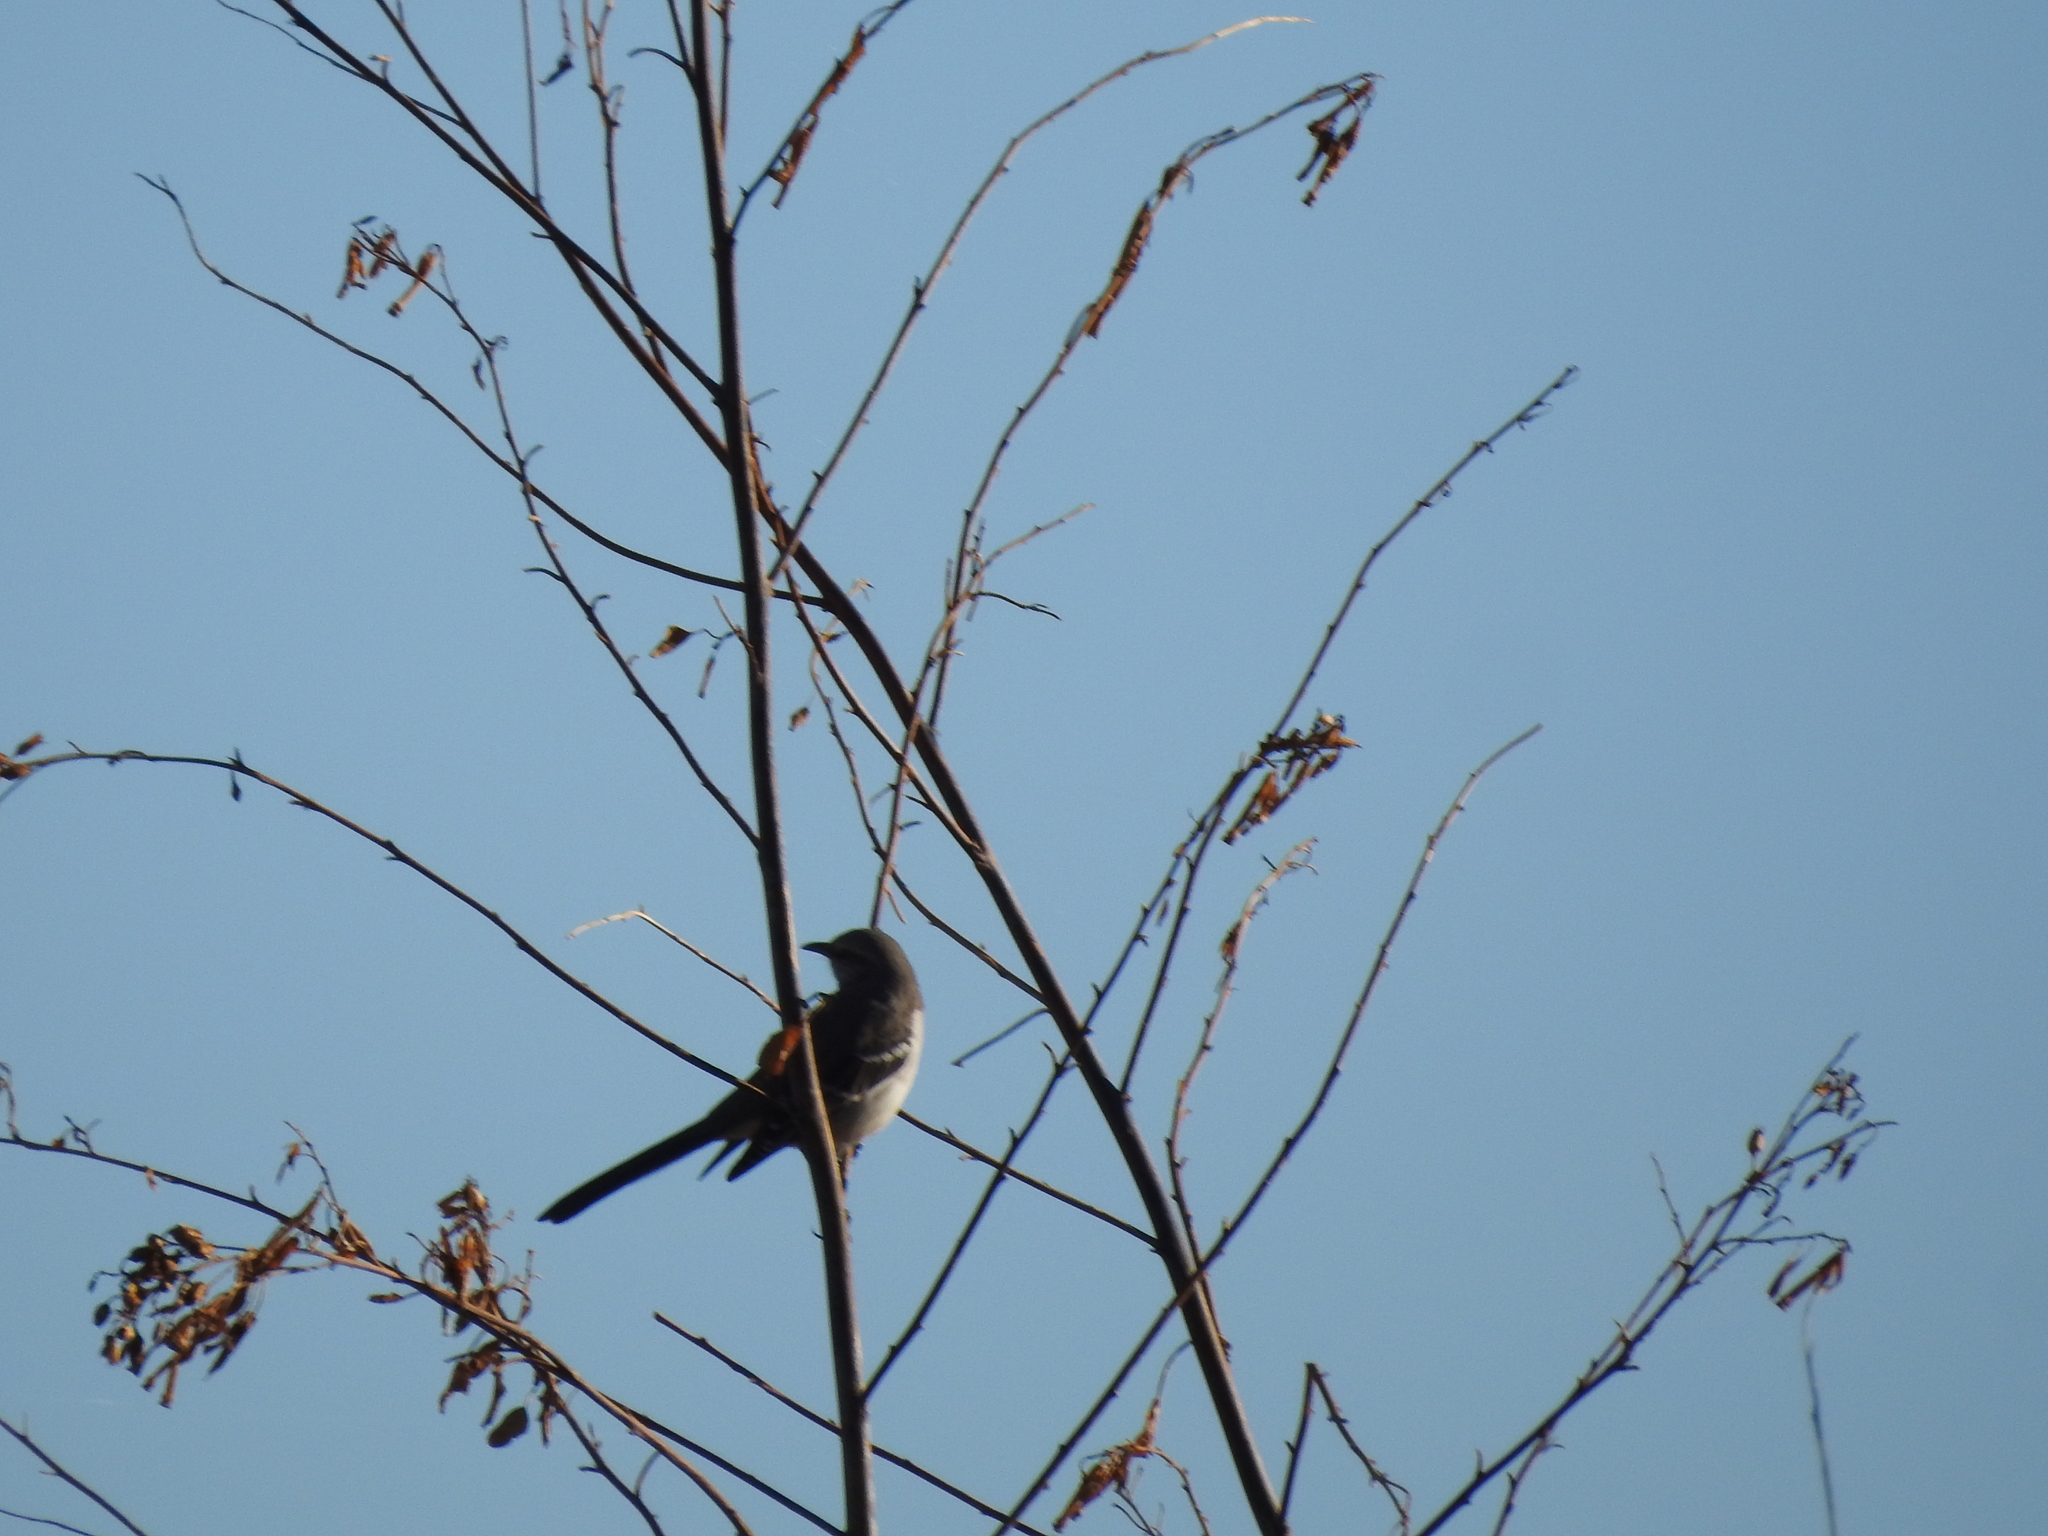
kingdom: Animalia
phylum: Chordata
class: Aves
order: Passeriformes
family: Mimidae
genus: Mimus
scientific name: Mimus polyglottos
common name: Northern mockingbird
